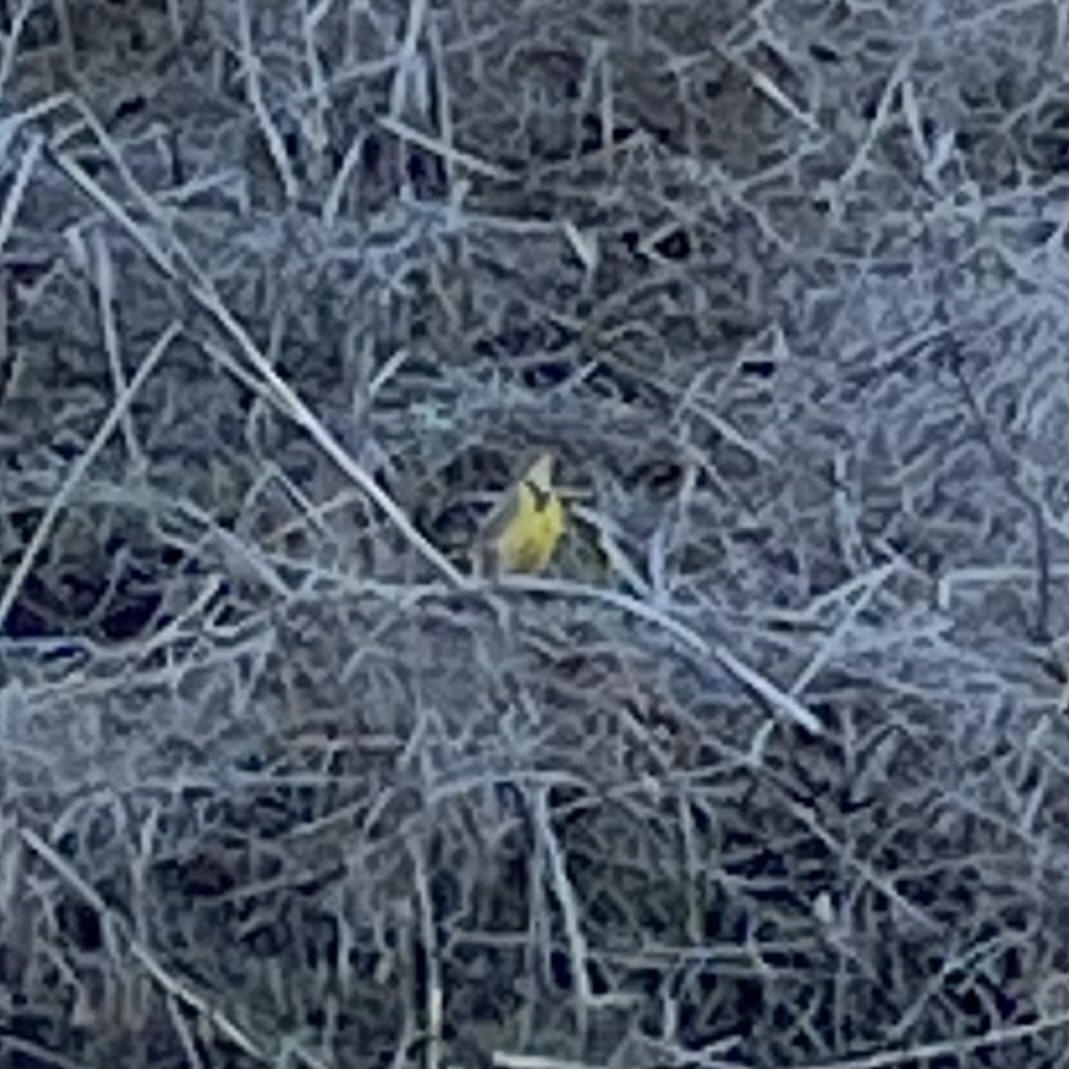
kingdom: Animalia
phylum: Chordata
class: Aves
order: Passeriformes
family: Icteridae
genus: Sturnella
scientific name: Sturnella neglecta
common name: Western meadowlark
